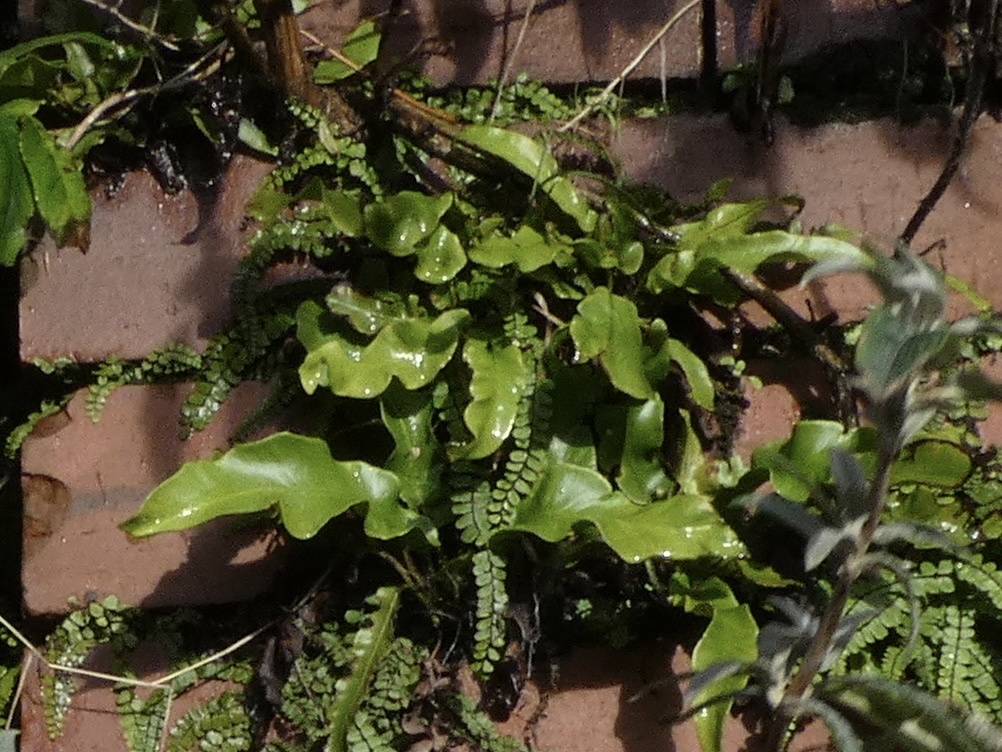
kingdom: Plantae
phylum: Tracheophyta
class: Polypodiopsida
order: Polypodiales
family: Aspleniaceae
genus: Asplenium
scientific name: Asplenium scolopendrium
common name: Hart's-tongue fern
